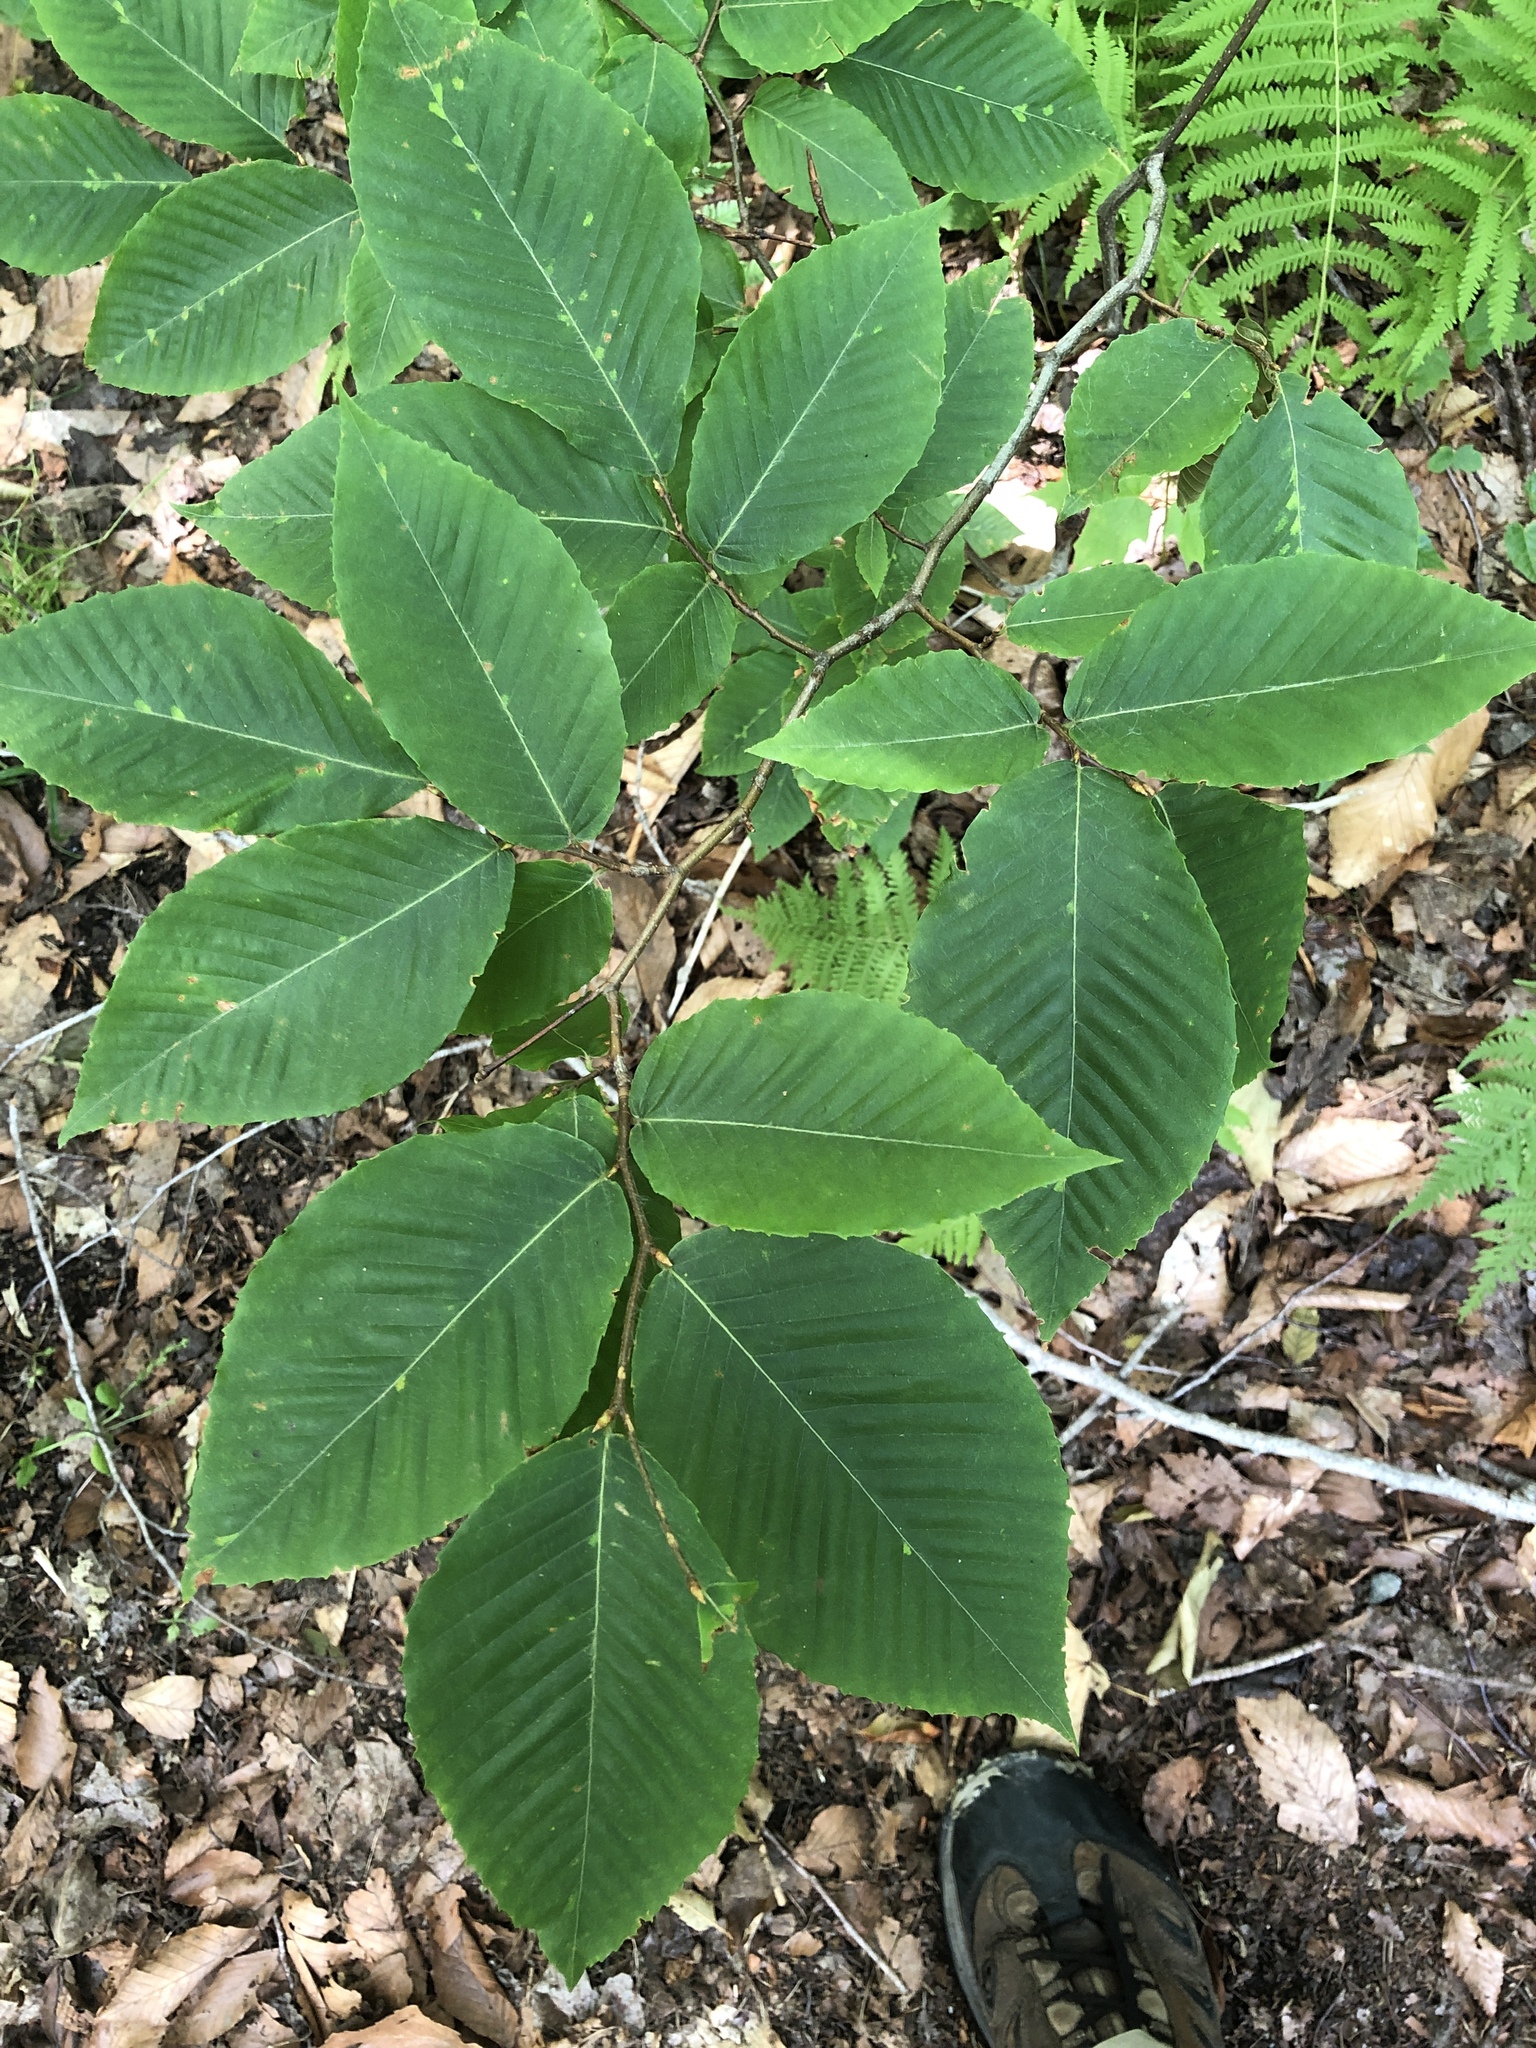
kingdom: Plantae
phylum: Tracheophyta
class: Magnoliopsida
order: Fagales
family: Fagaceae
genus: Fagus
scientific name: Fagus grandifolia
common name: American beech
